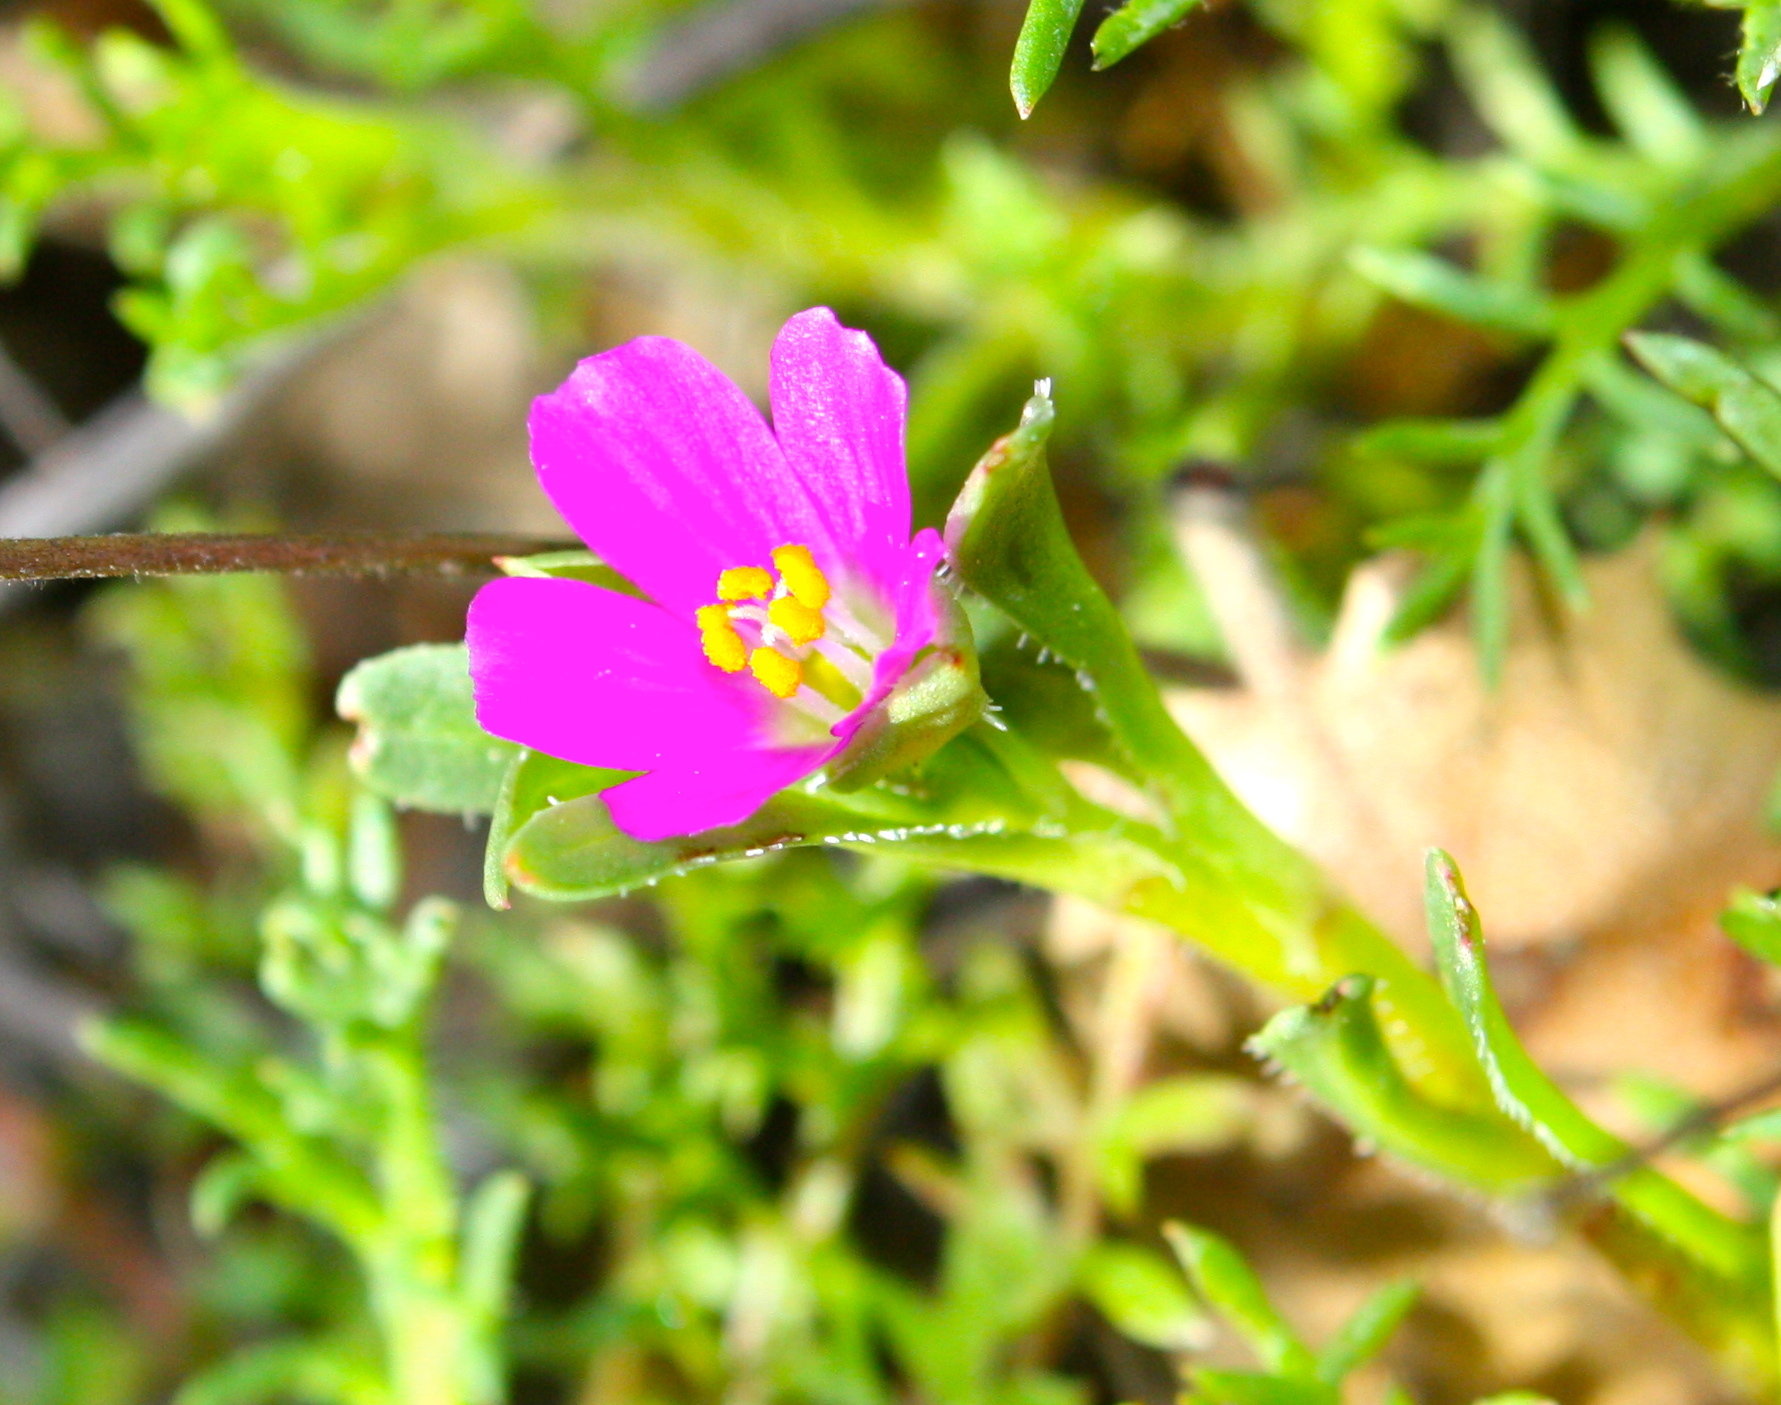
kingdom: Plantae
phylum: Tracheophyta
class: Magnoliopsida
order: Caryophyllales
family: Montiaceae
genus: Calandrinia
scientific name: Calandrinia menziesii
